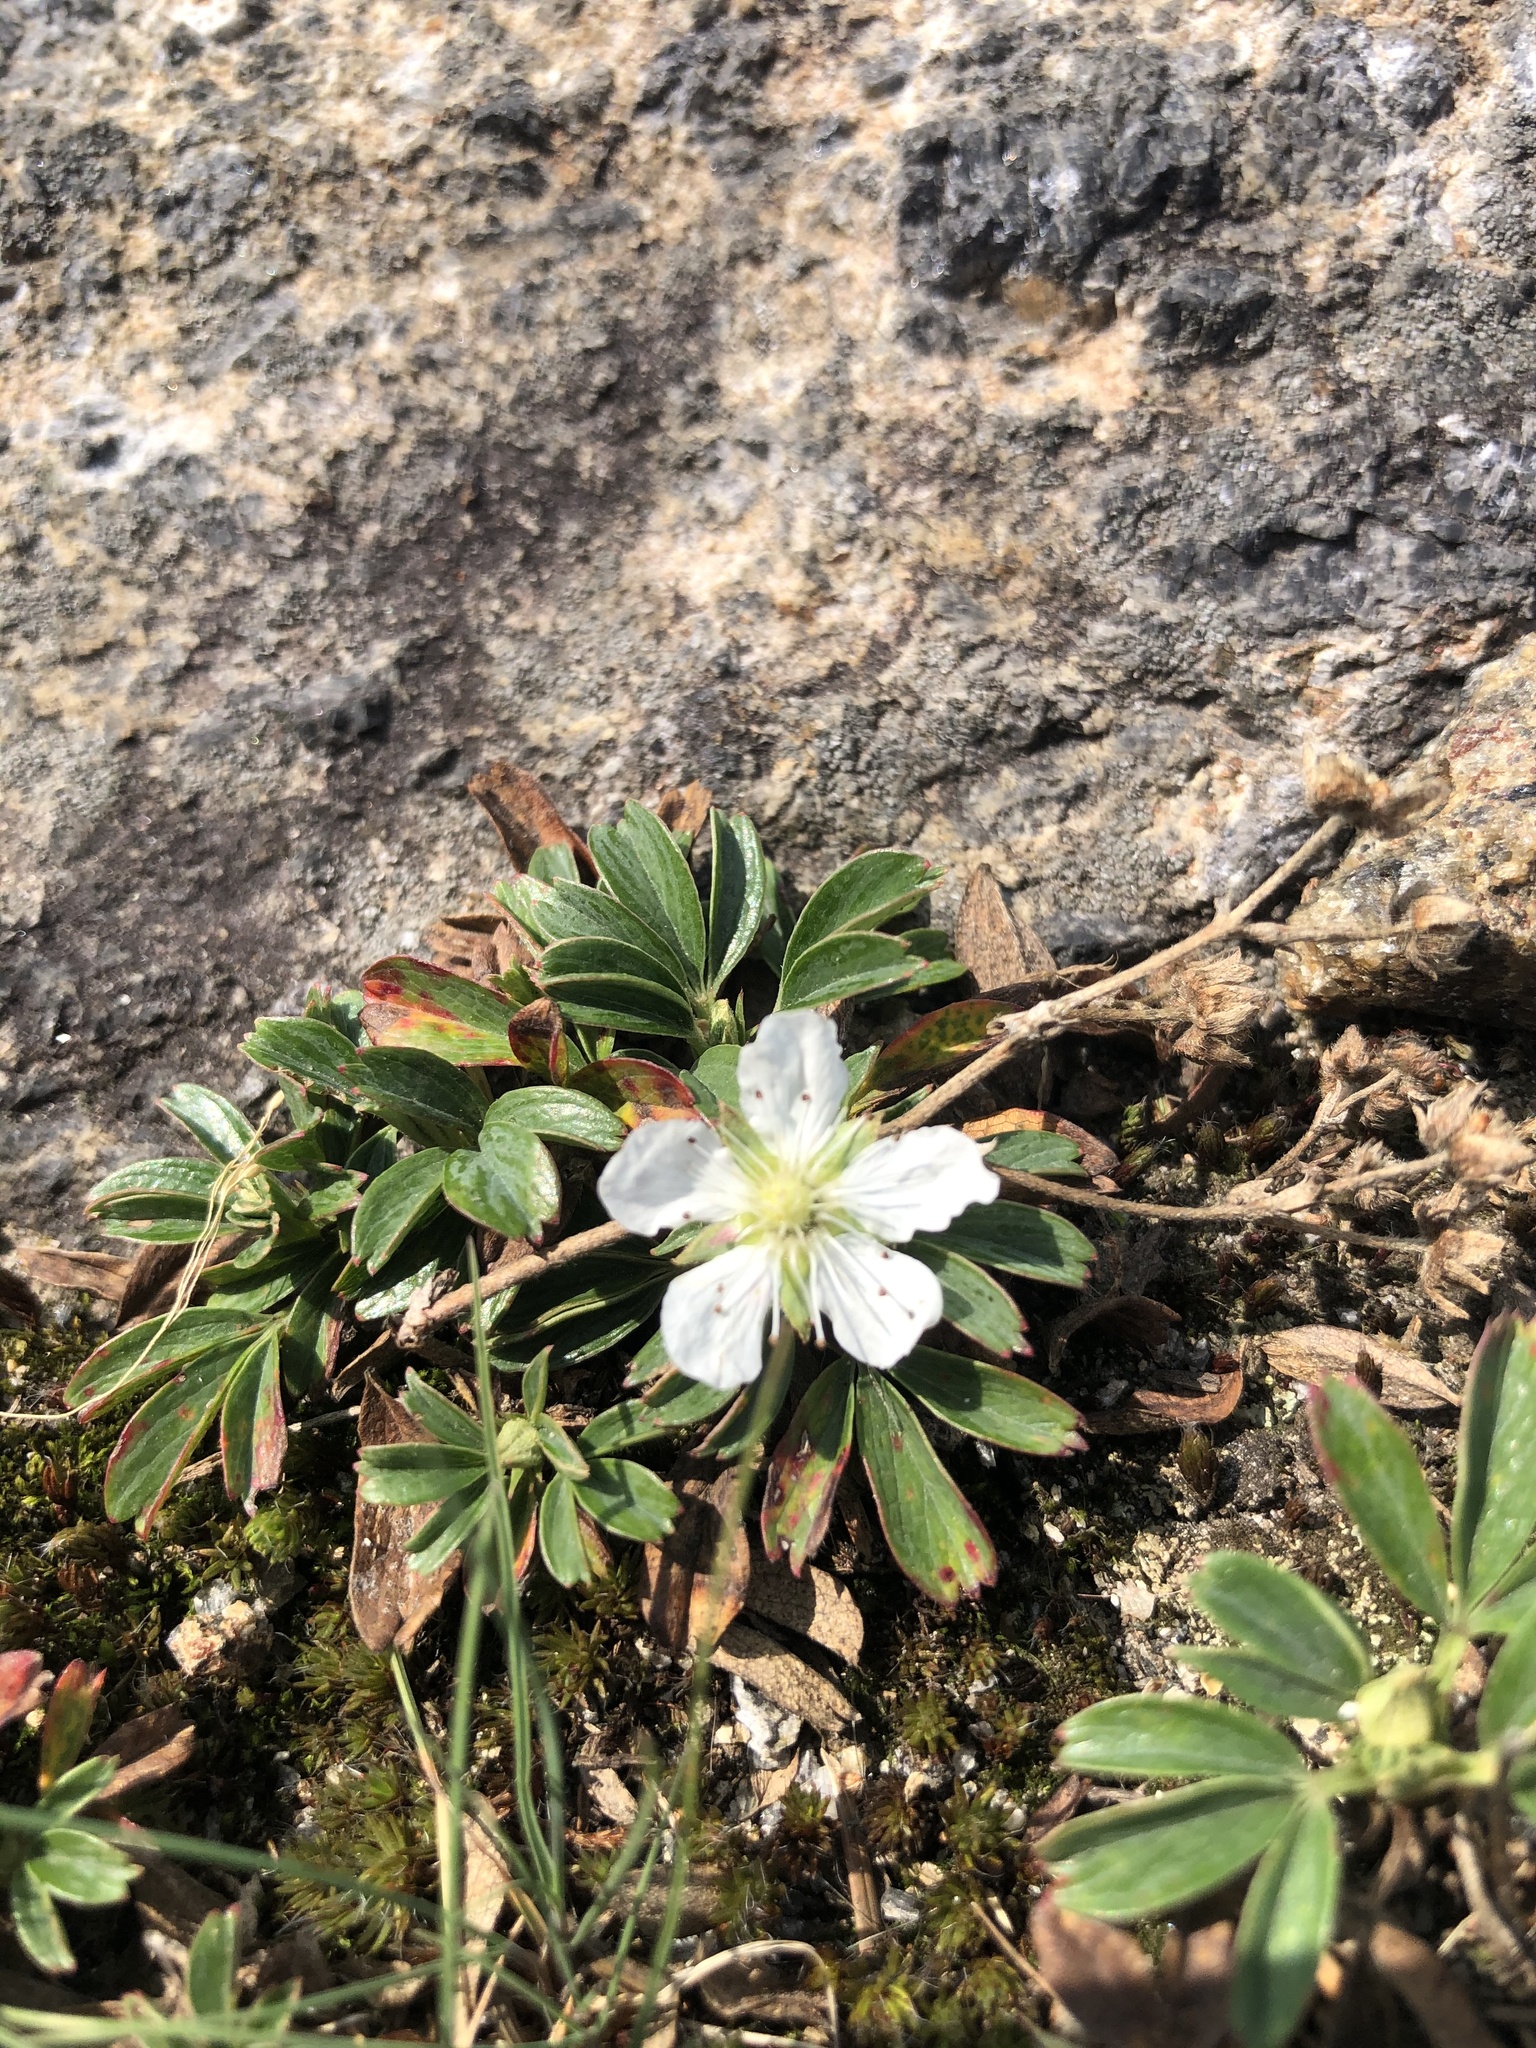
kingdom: Plantae
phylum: Tracheophyta
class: Magnoliopsida
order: Rosales
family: Rosaceae
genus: Sibbaldia
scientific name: Sibbaldia tridentata
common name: Three-toothed cinquefoil
